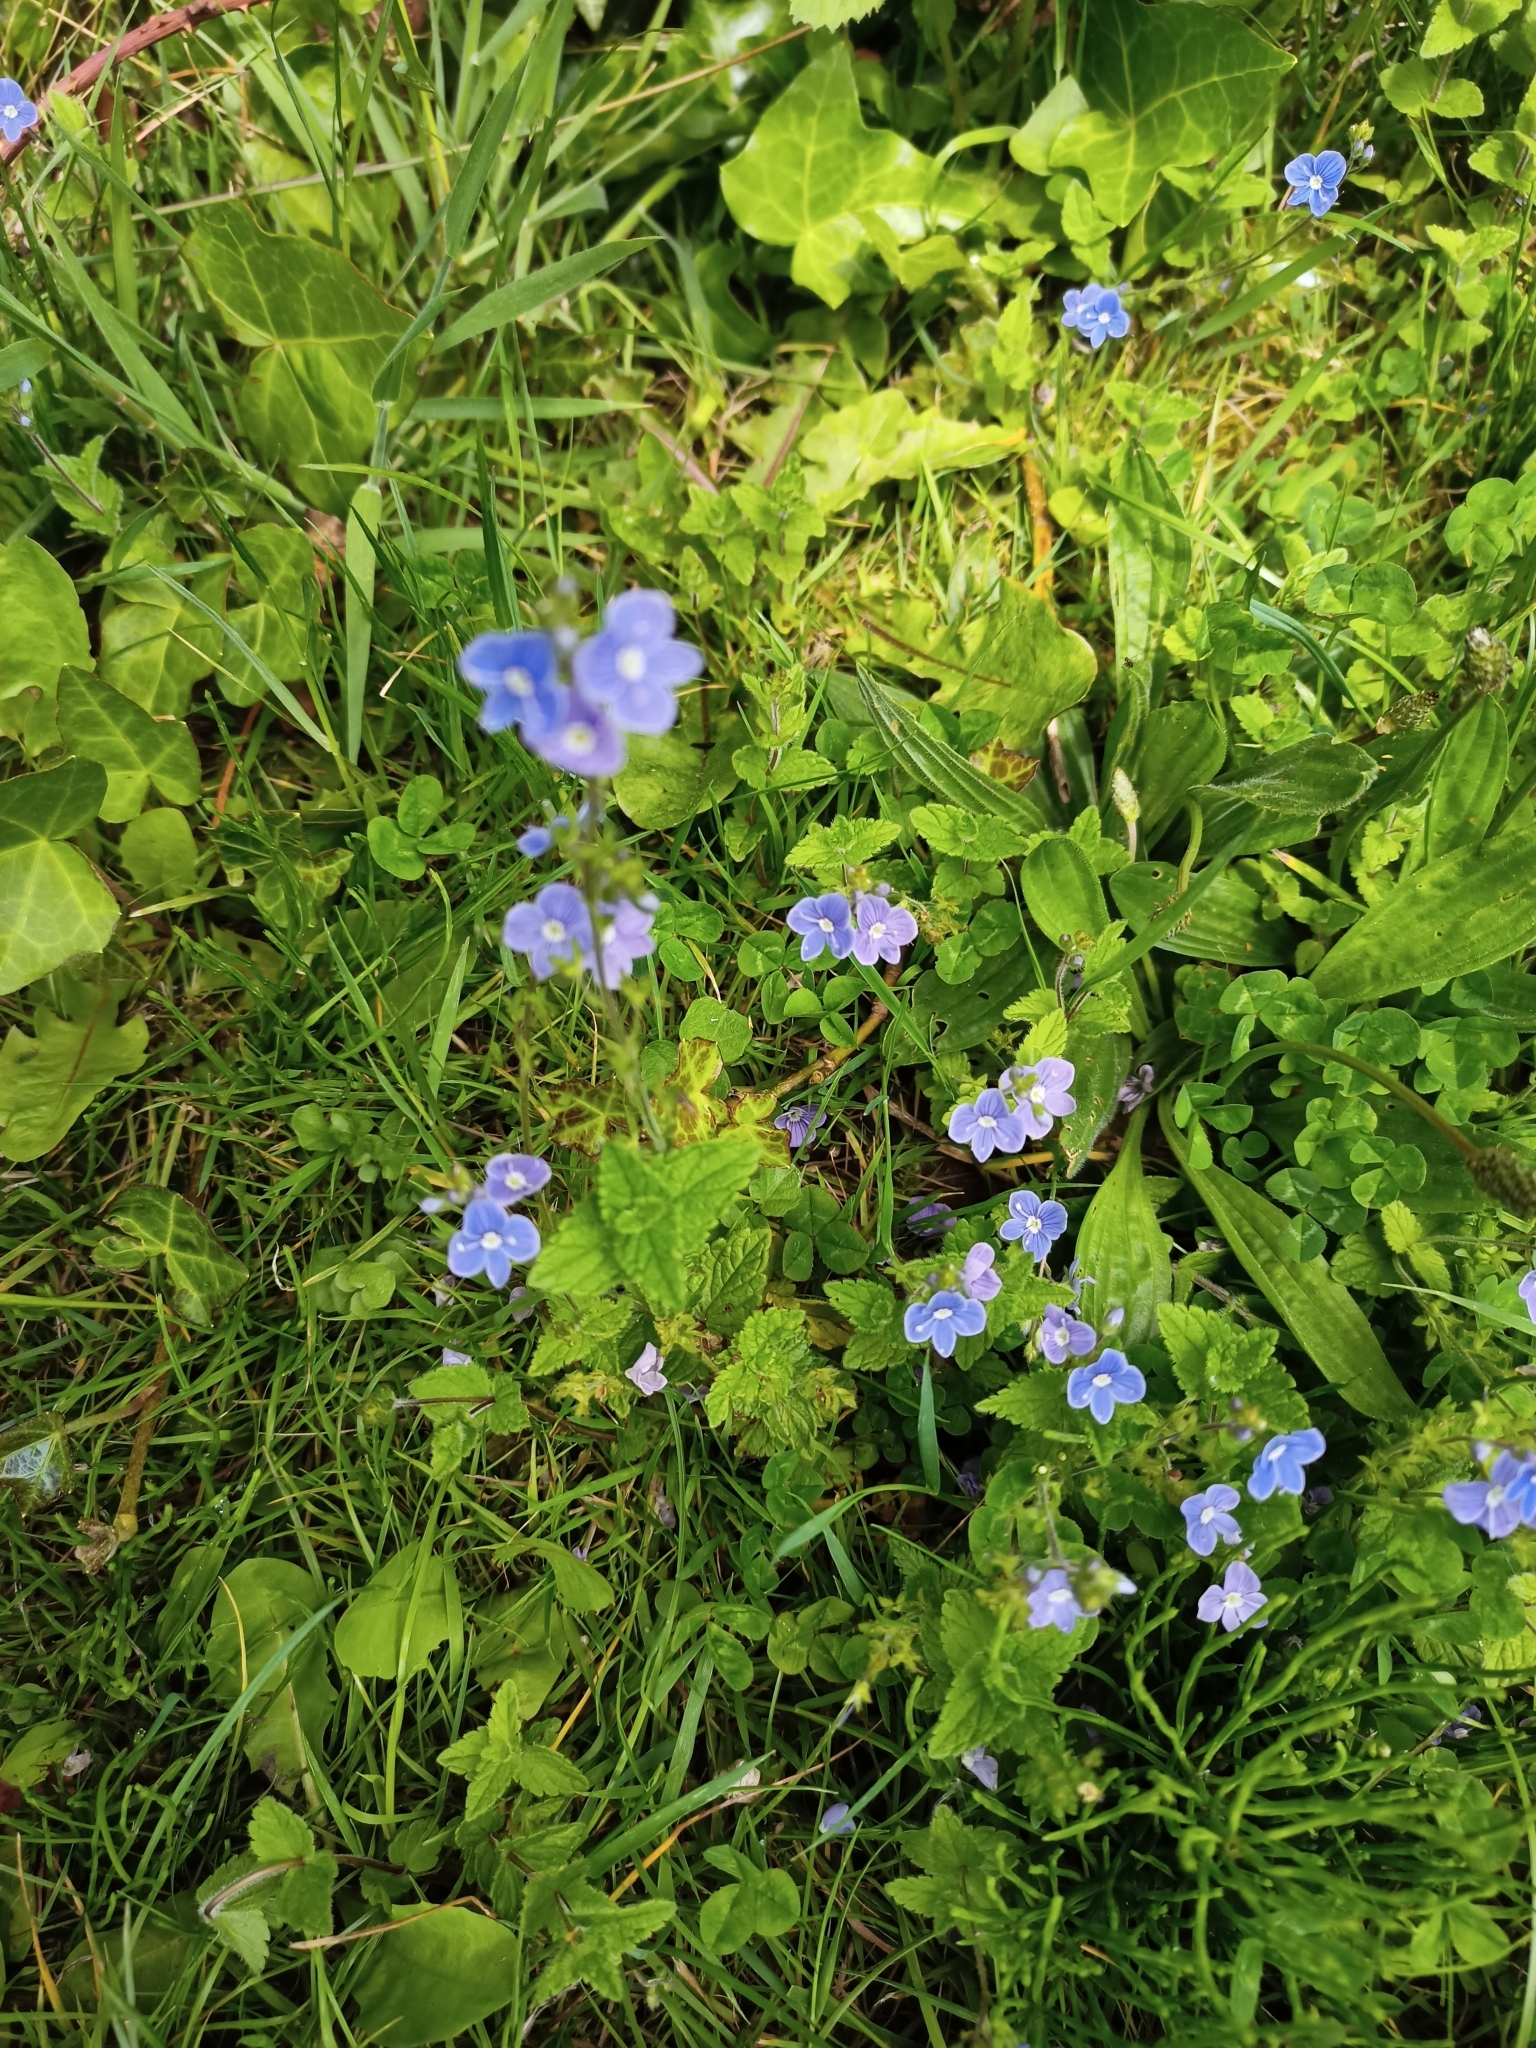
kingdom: Plantae
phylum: Tracheophyta
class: Magnoliopsida
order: Lamiales
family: Plantaginaceae
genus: Veronica
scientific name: Veronica chamaedrys
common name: Germander speedwell
